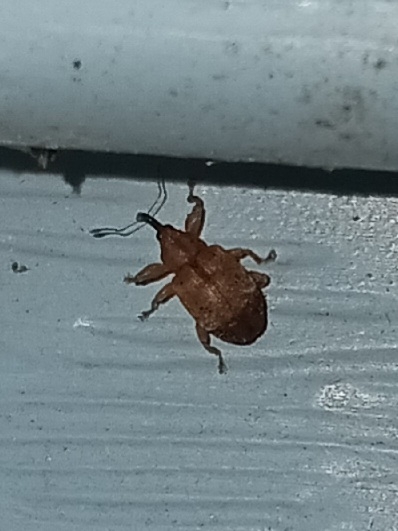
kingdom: Animalia
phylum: Arthropoda
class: Insecta
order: Coleoptera
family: Curculionidae
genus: Ochyromera
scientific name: Ochyromera ligustri
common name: Weevil
